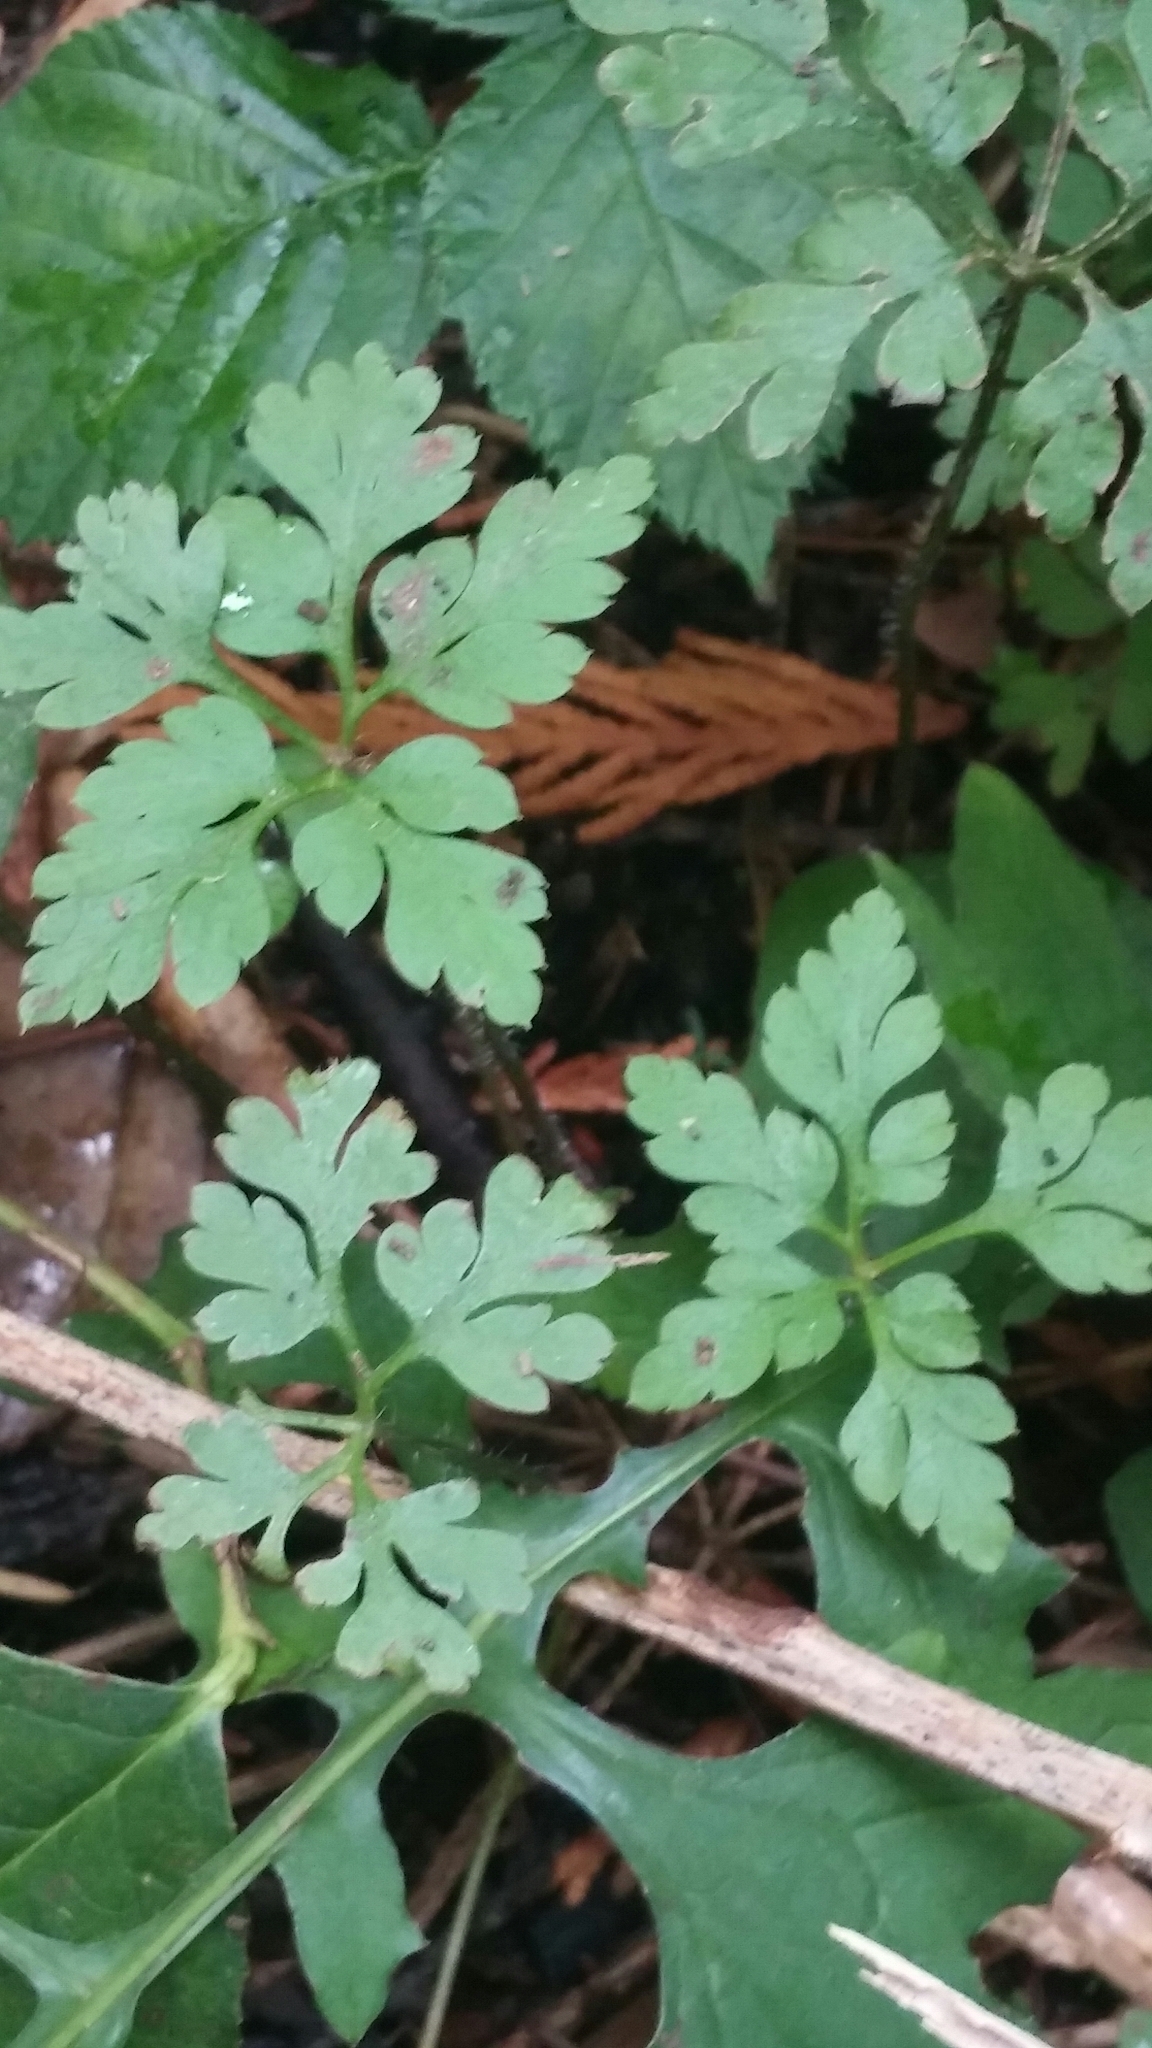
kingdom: Plantae
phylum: Tracheophyta
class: Magnoliopsida
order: Geraniales
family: Geraniaceae
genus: Geranium
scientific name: Geranium robertianum
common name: Herb-robert
